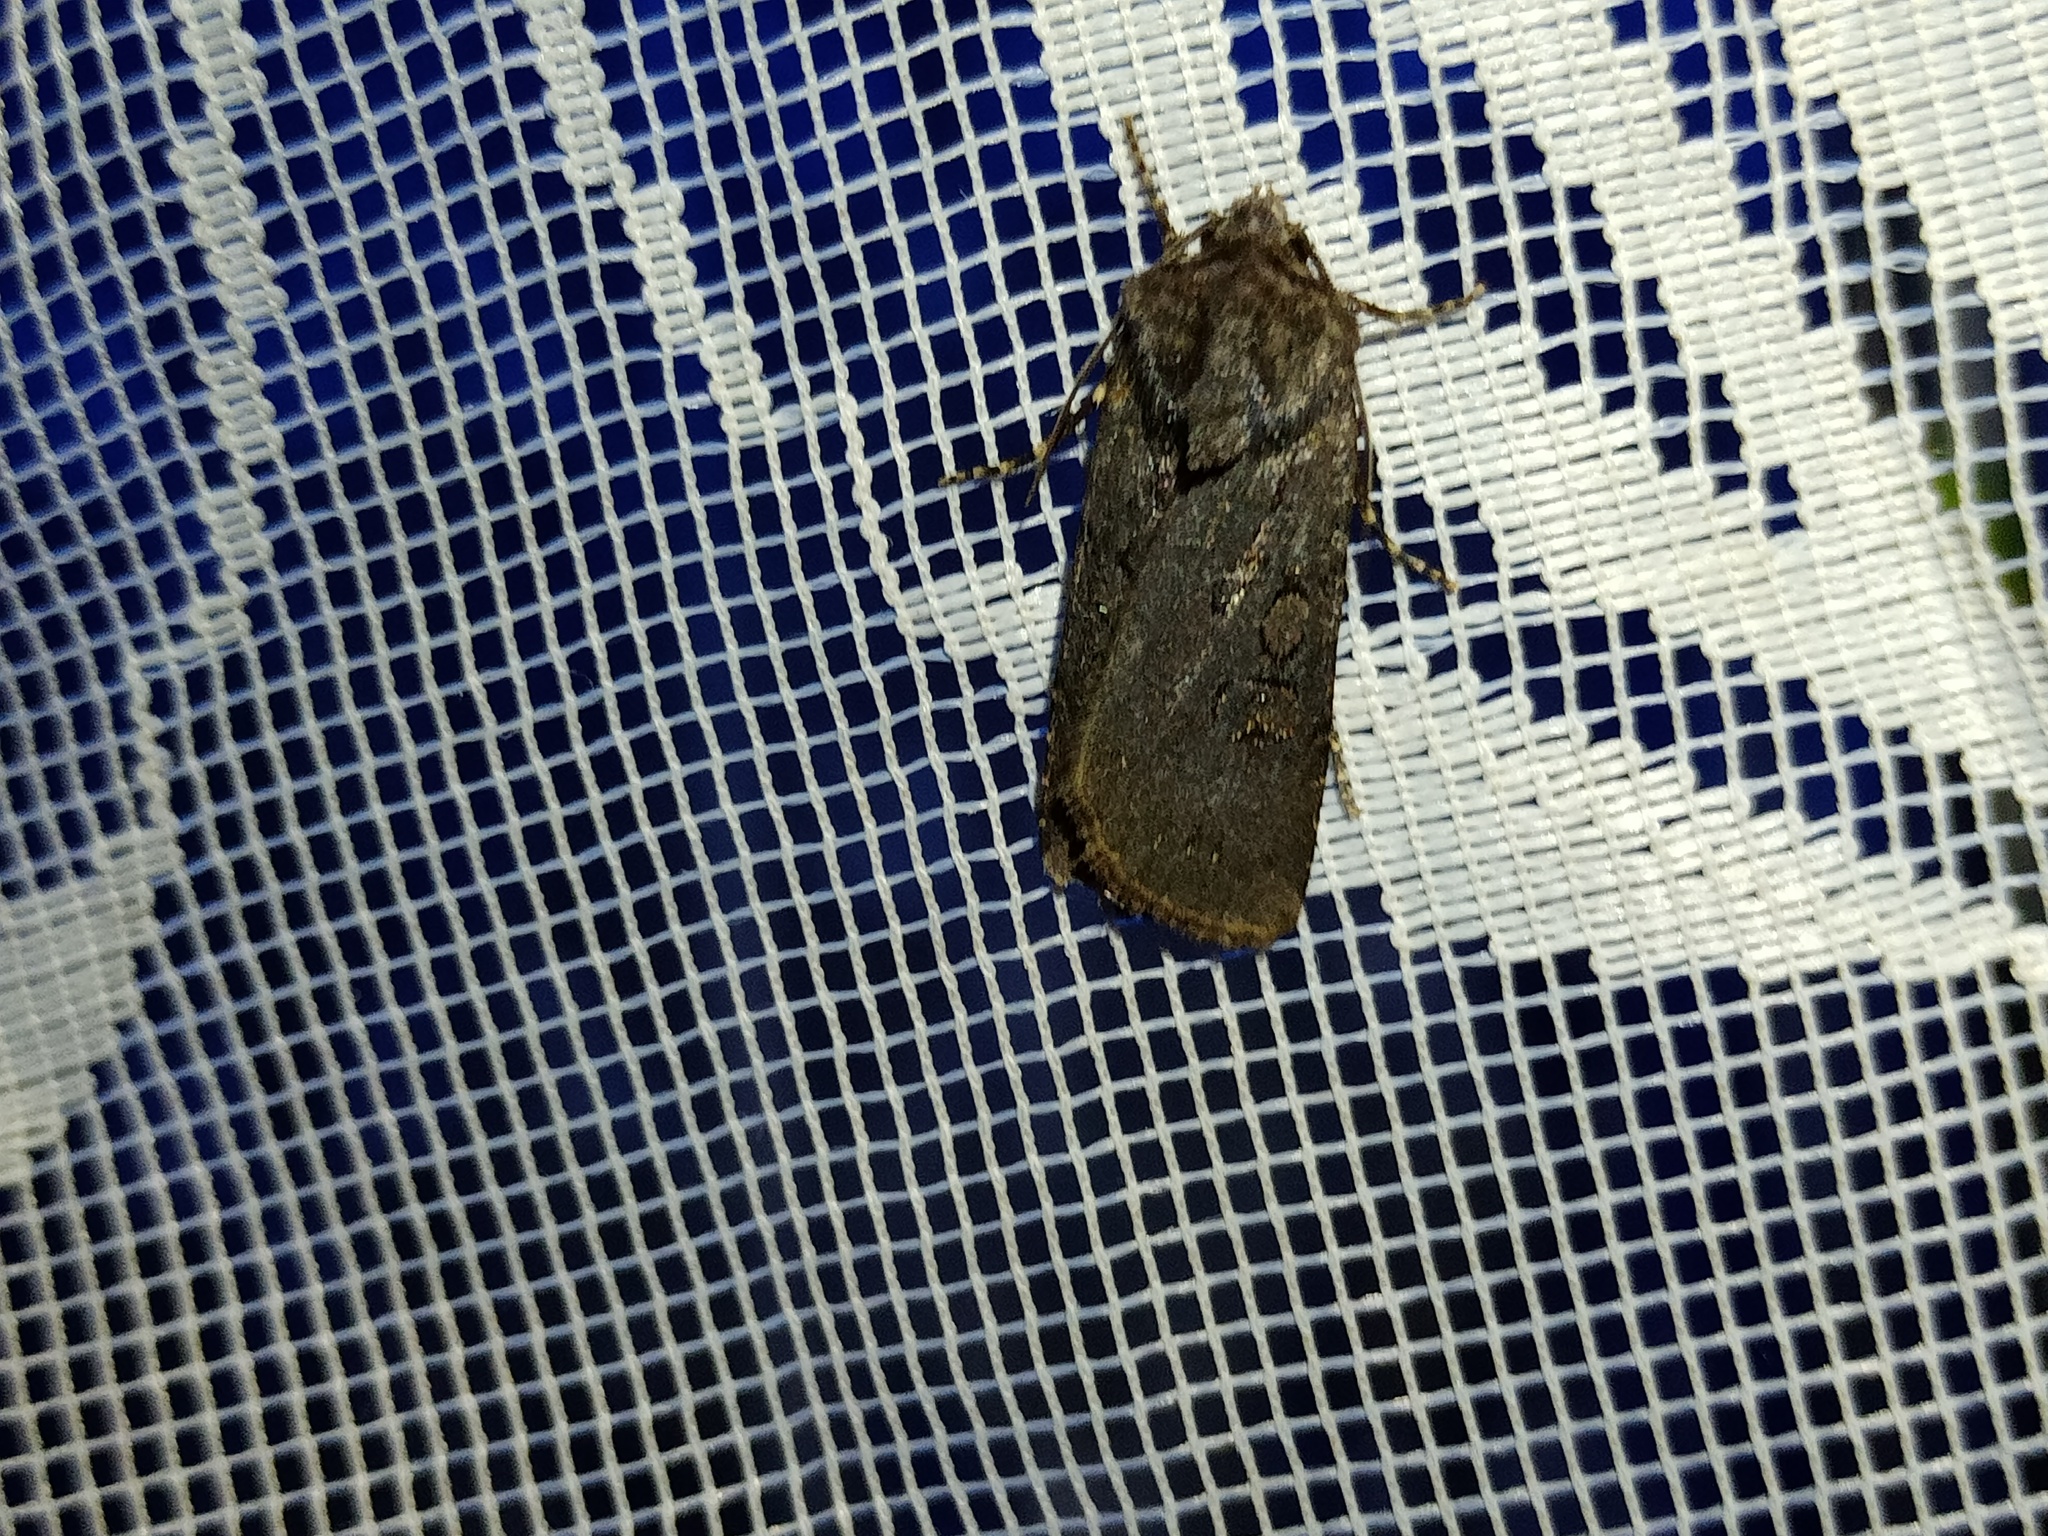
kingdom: Animalia
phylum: Arthropoda
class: Insecta
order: Lepidoptera
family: Noctuidae
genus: Euxoa
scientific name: Euxoa nigricans
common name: Garden dart
